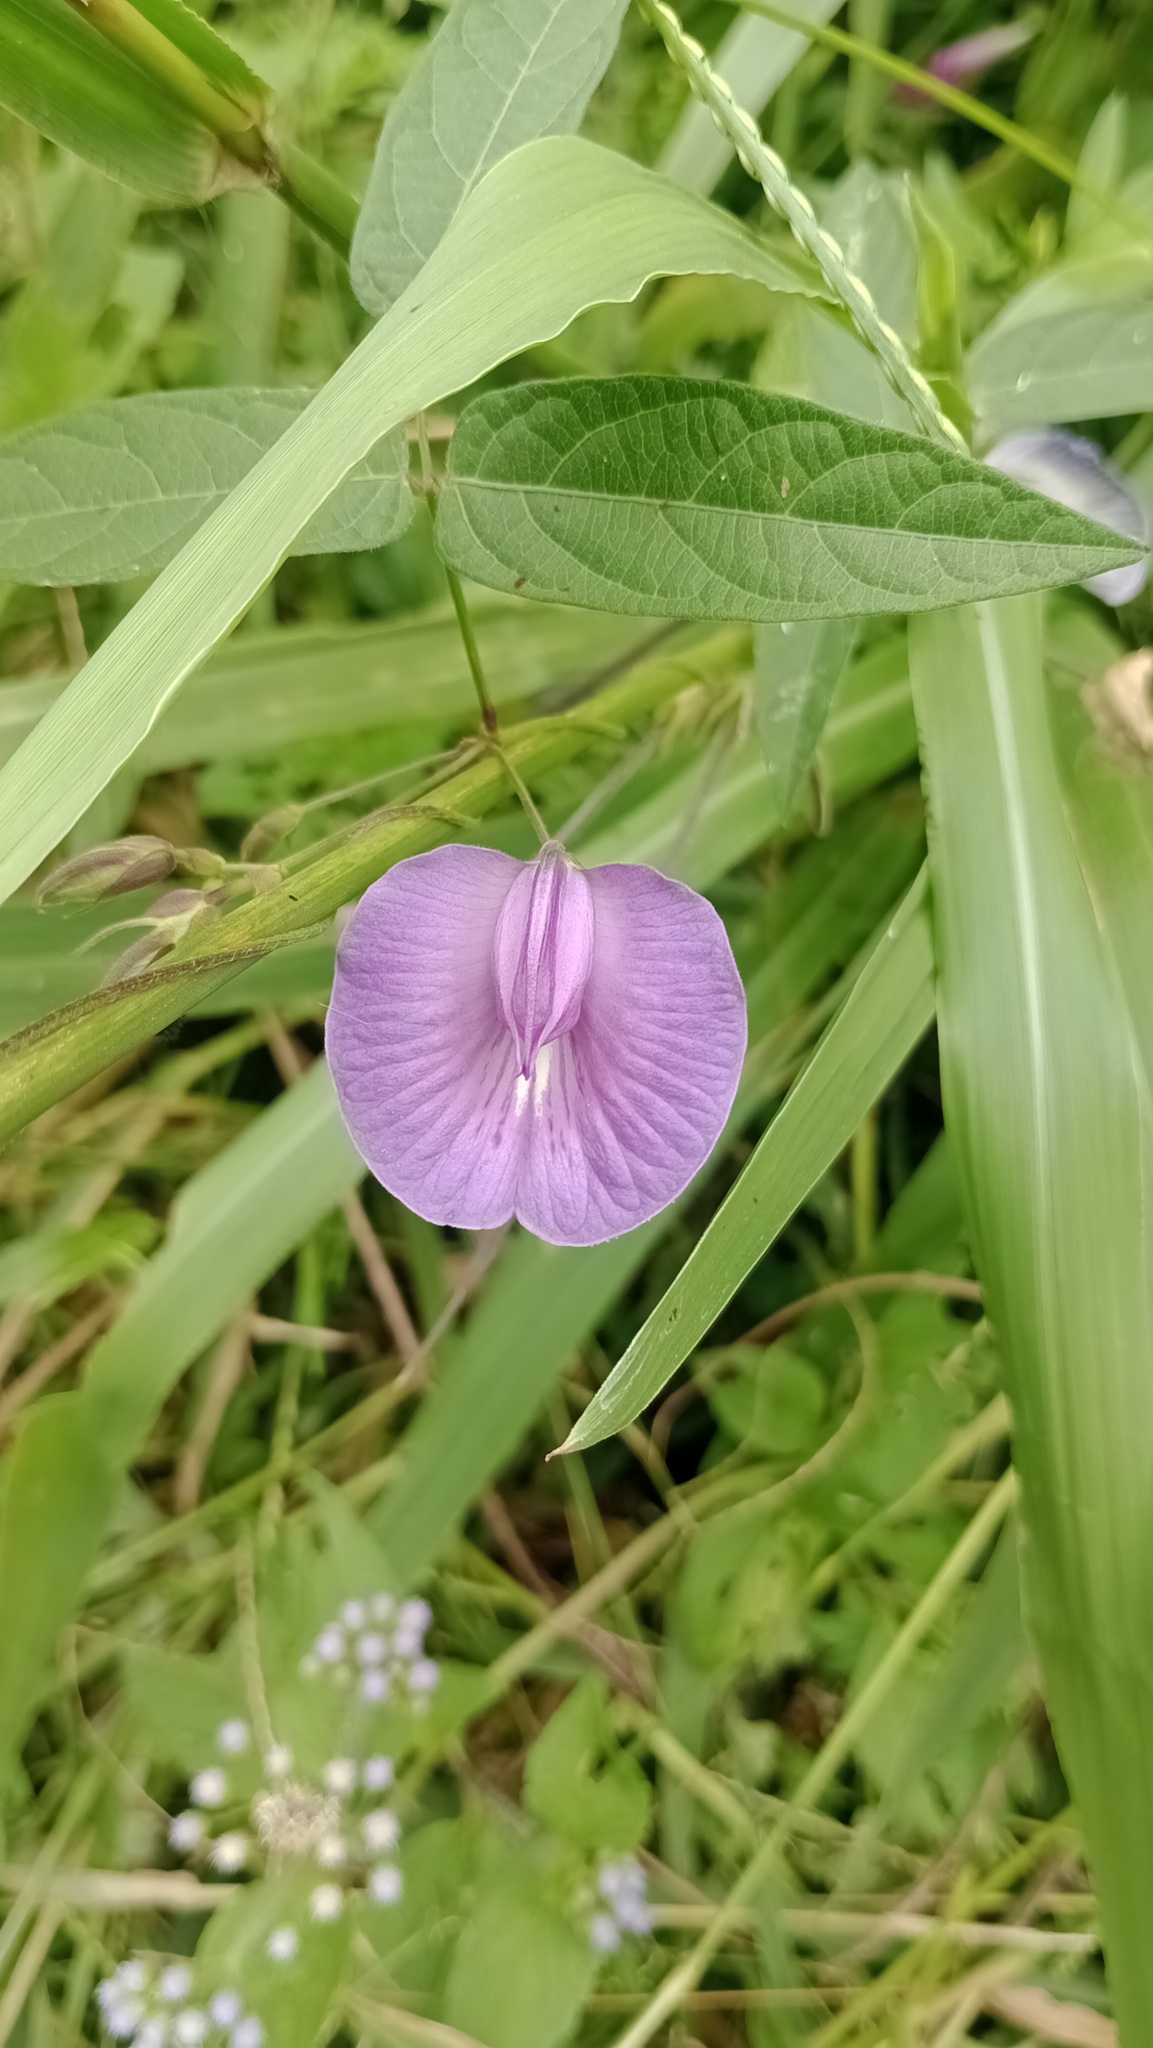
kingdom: Plantae
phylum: Tracheophyta
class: Magnoliopsida
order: Fabales
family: Fabaceae
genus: Centrosema
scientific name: Centrosema virginianum
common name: Butterfly-pea
